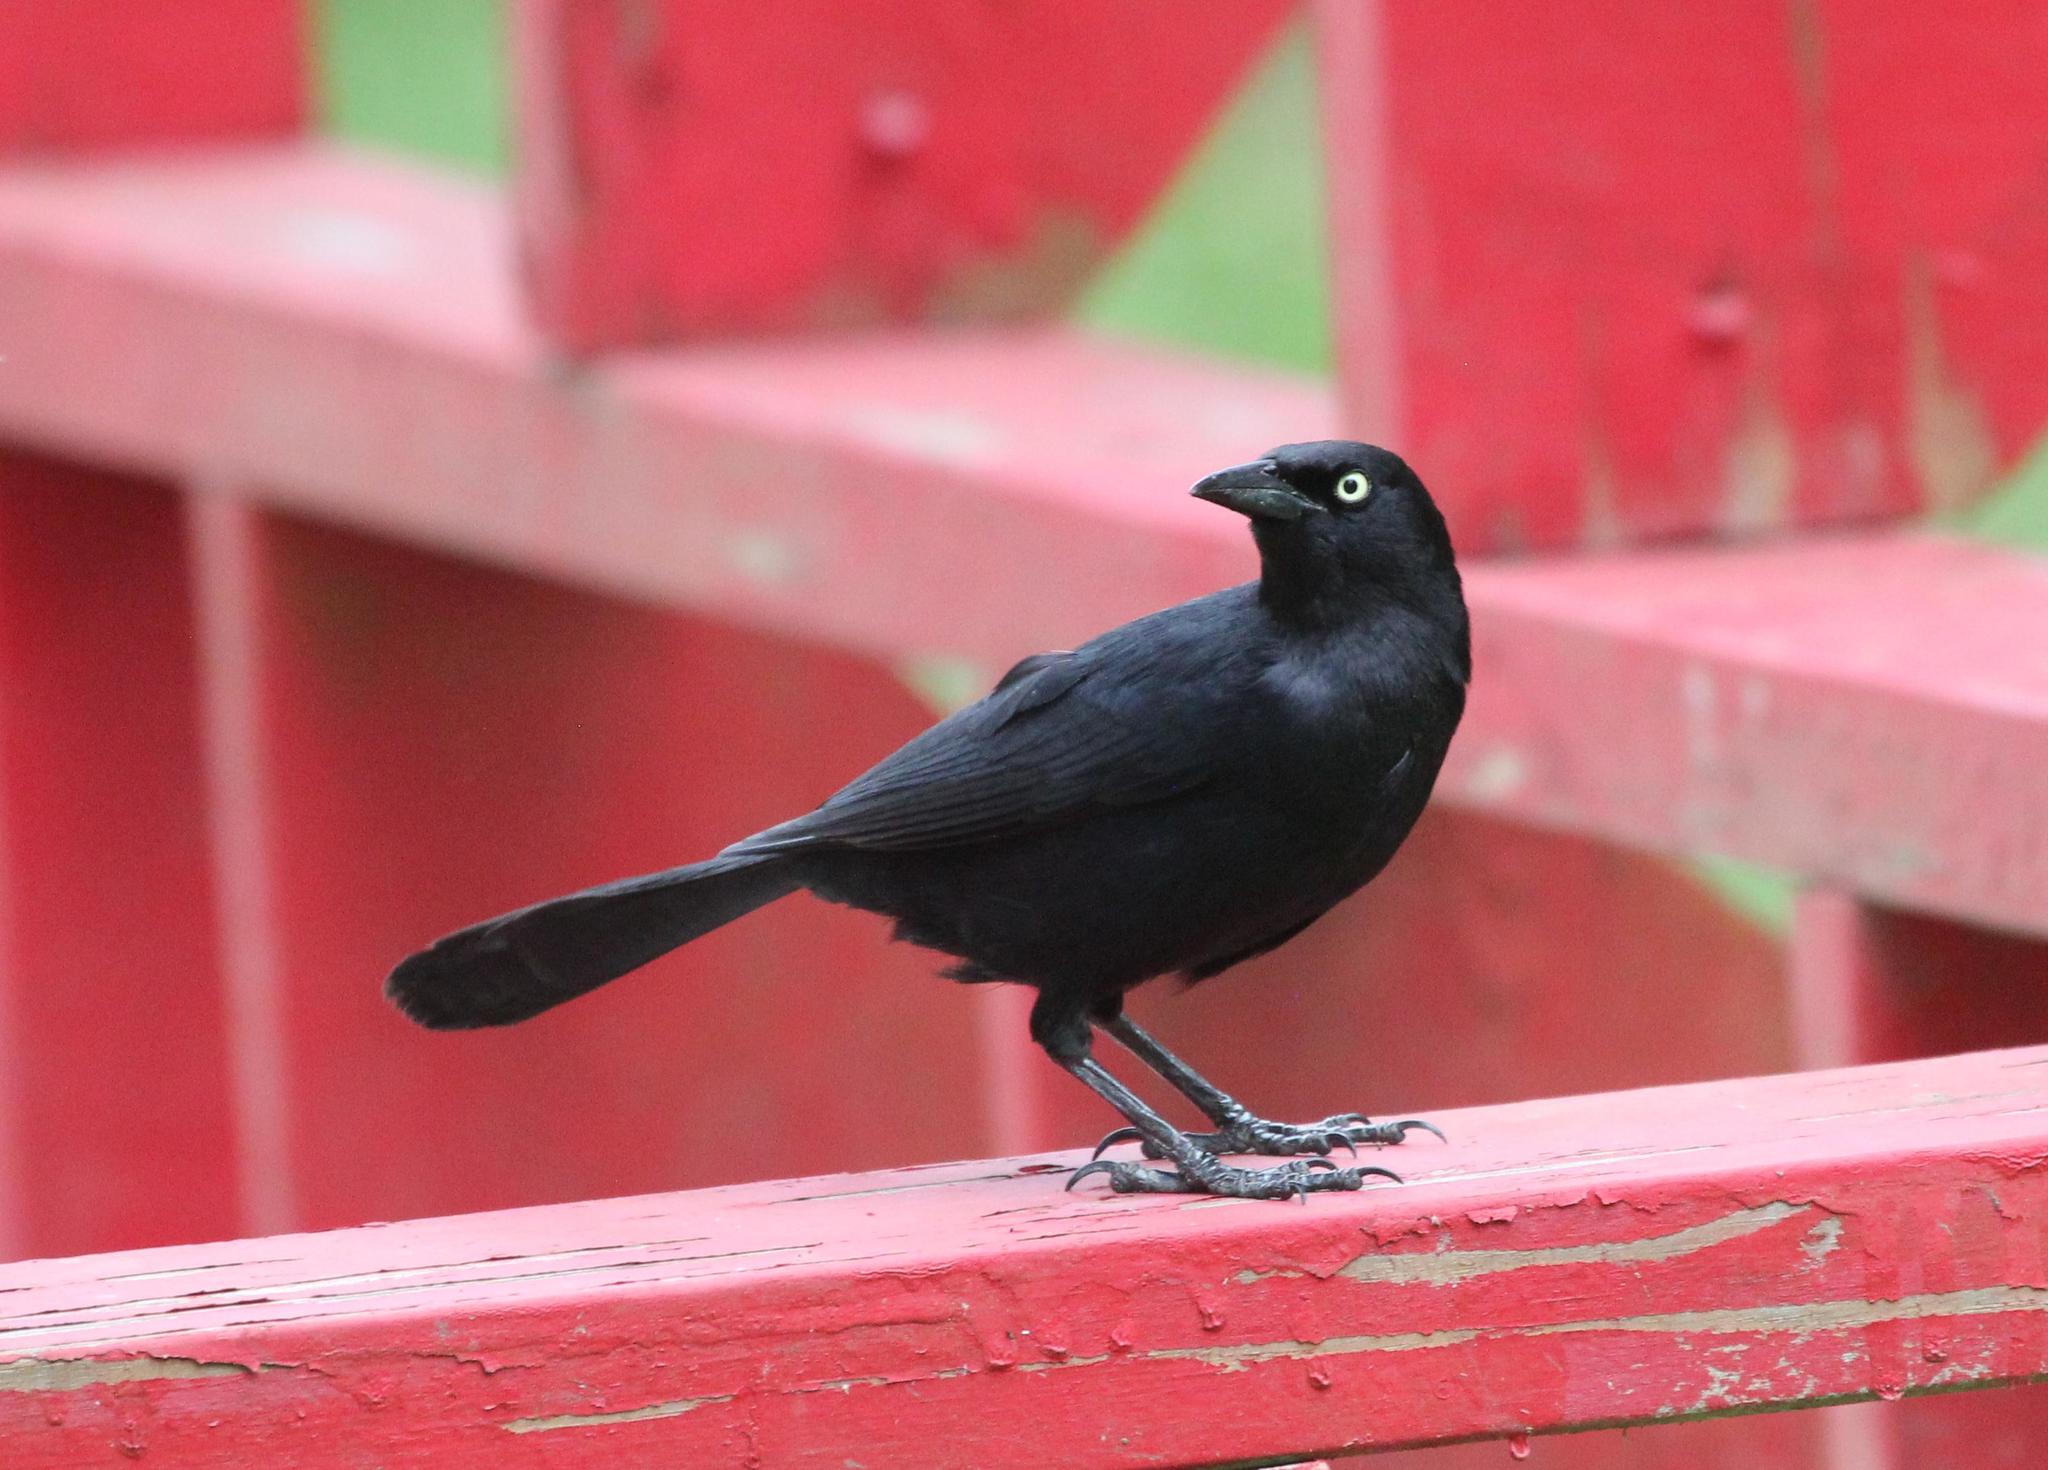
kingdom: Animalia
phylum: Chordata
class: Aves
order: Passeriformes
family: Icteridae
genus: Quiscalus
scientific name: Quiscalus niger
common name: Greater antillean grackle
